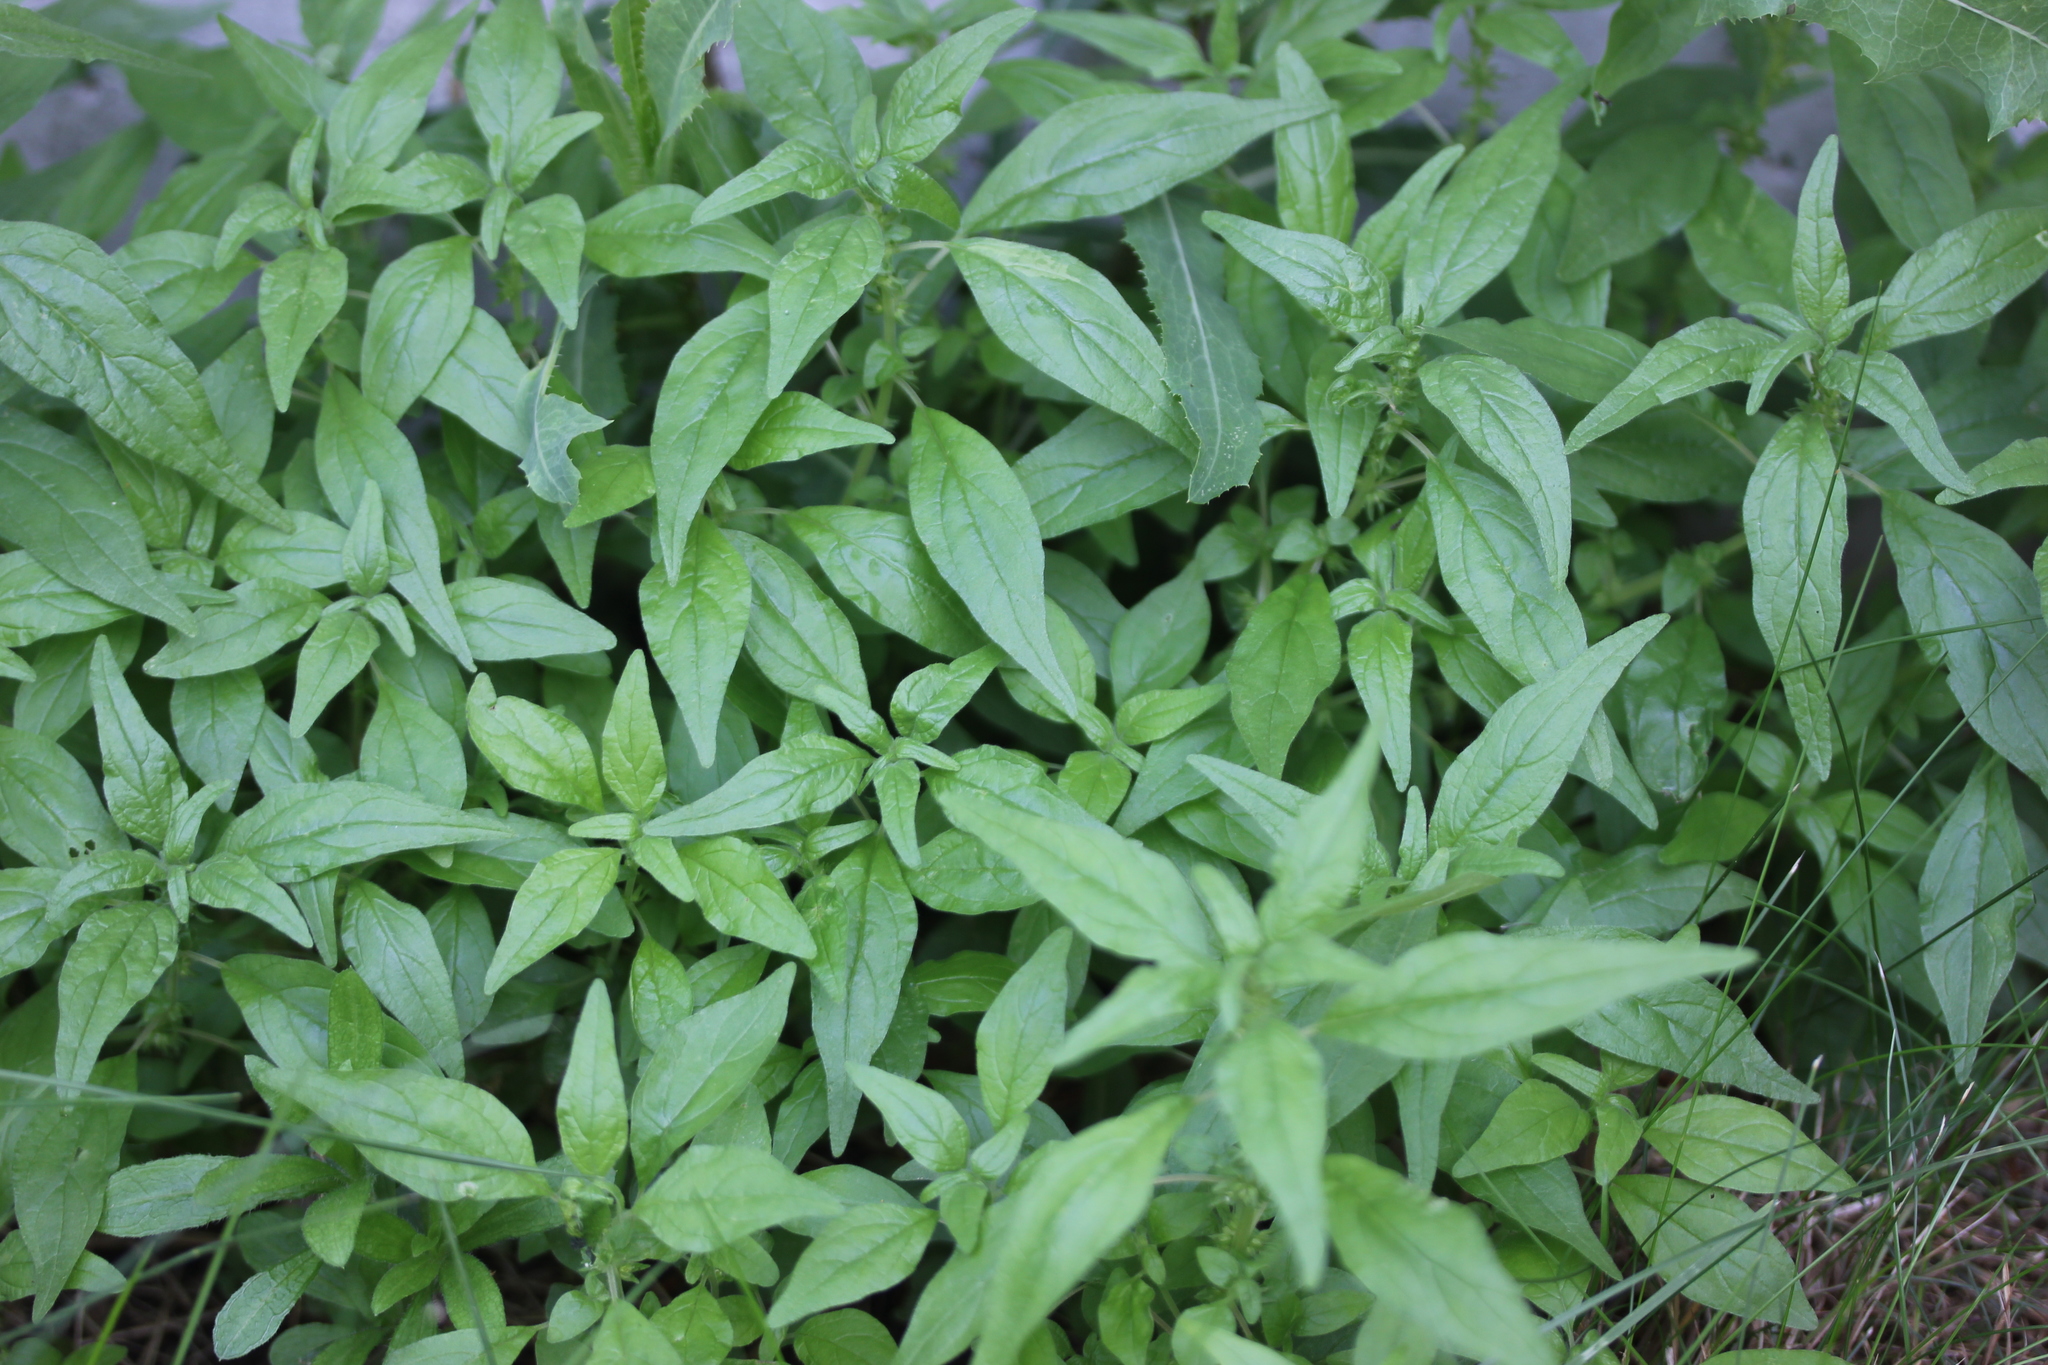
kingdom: Plantae
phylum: Tracheophyta
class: Magnoliopsida
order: Rosales
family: Urticaceae
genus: Parietaria
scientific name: Parietaria pensylvanica
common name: Pennsylvania pellitory
